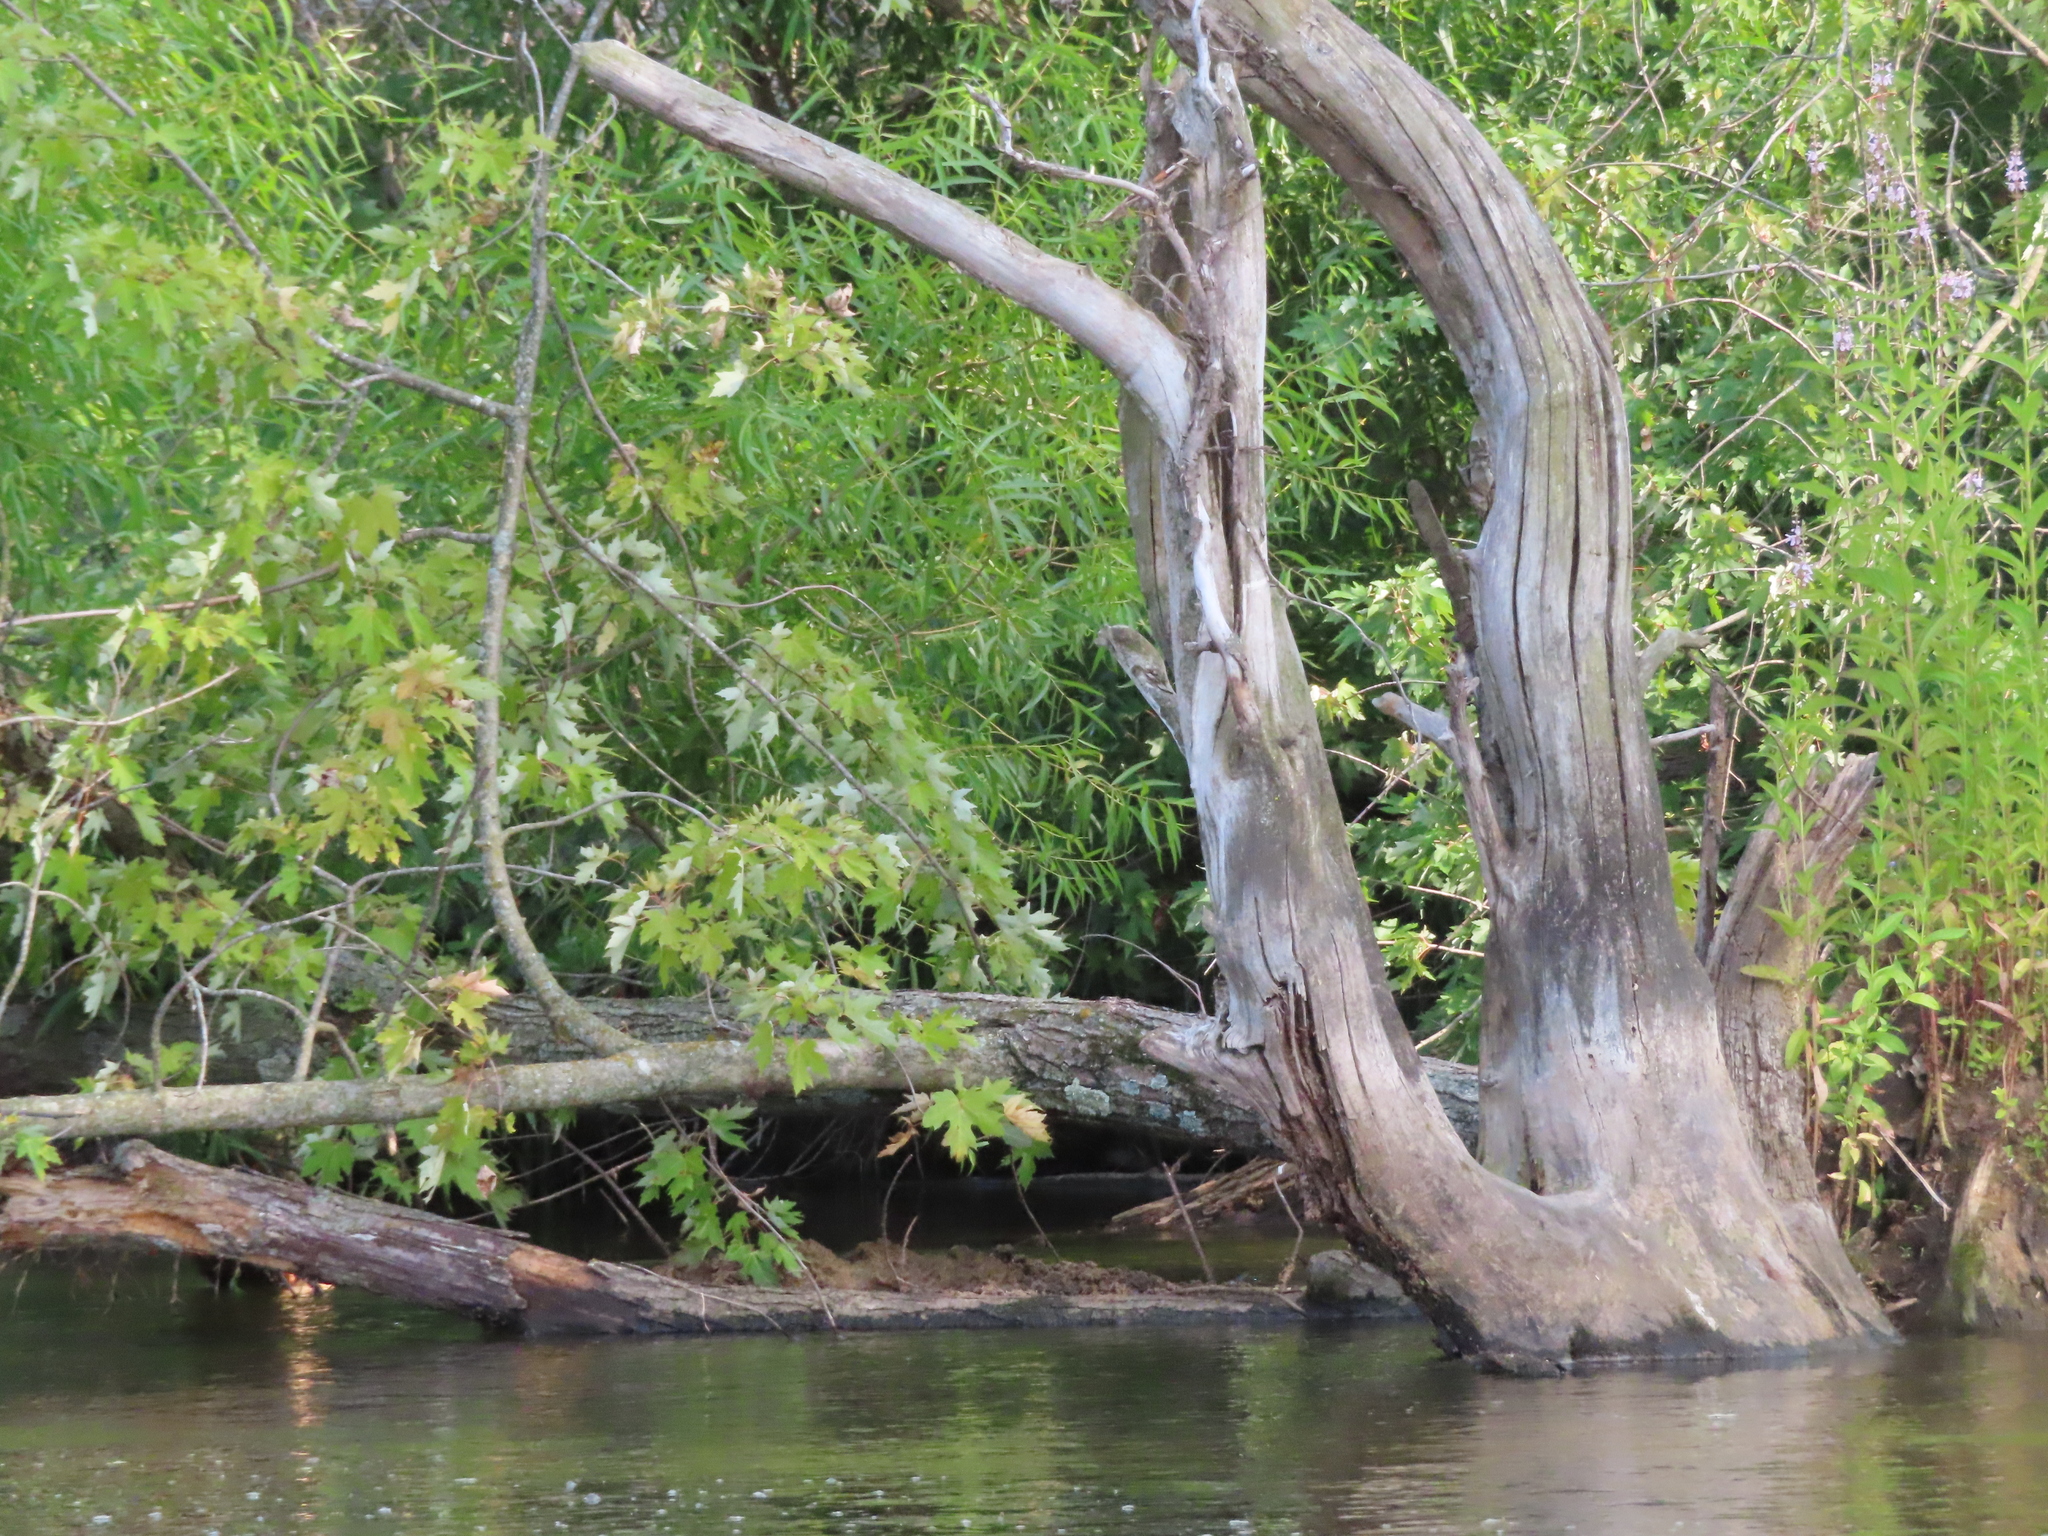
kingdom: Plantae
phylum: Tracheophyta
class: Magnoliopsida
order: Malpighiales
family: Salicaceae
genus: Salix
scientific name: Salix nigra
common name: Black willow
